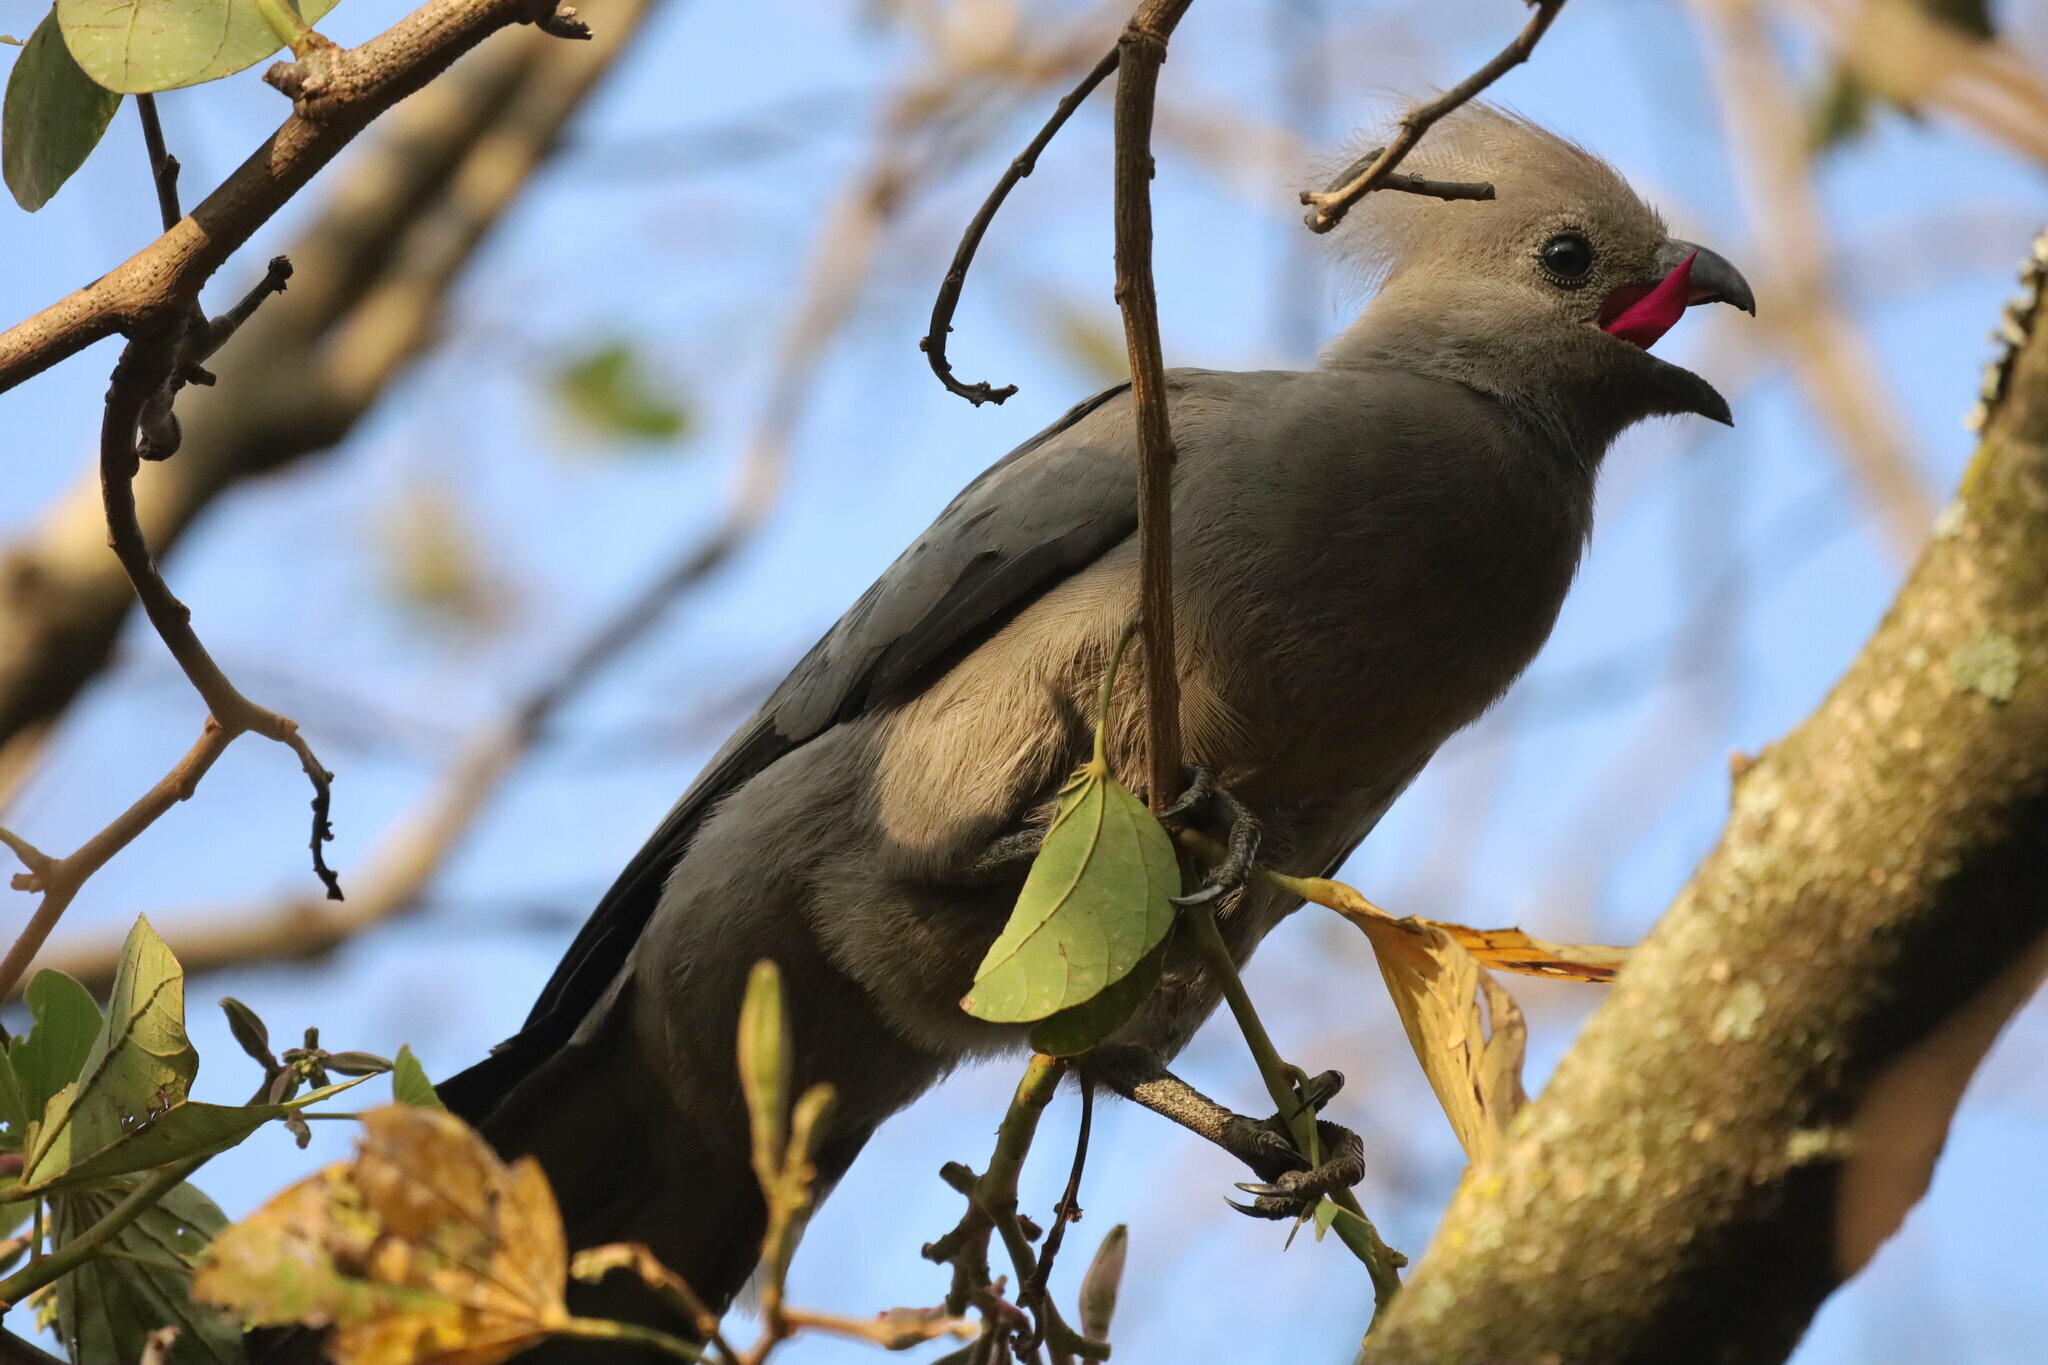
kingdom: Animalia
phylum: Chordata
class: Aves
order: Musophagiformes
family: Musophagidae
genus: Corythaixoides
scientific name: Corythaixoides concolor
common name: Grey go-away-bird
